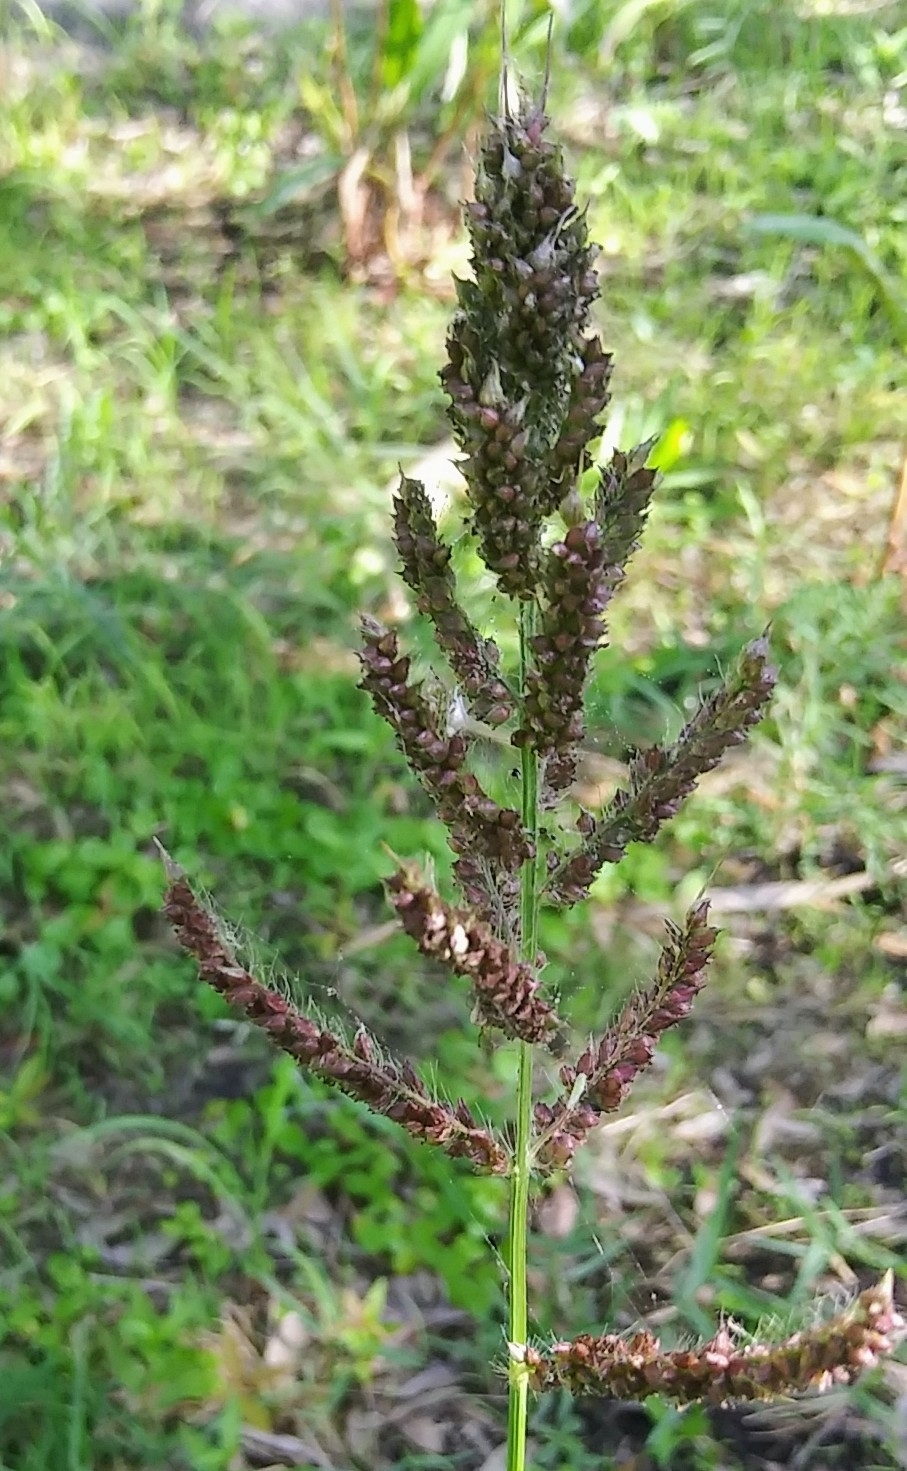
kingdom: Plantae
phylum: Tracheophyta
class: Liliopsida
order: Poales
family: Poaceae
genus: Echinochloa
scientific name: Echinochloa crus-galli
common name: Cockspur
